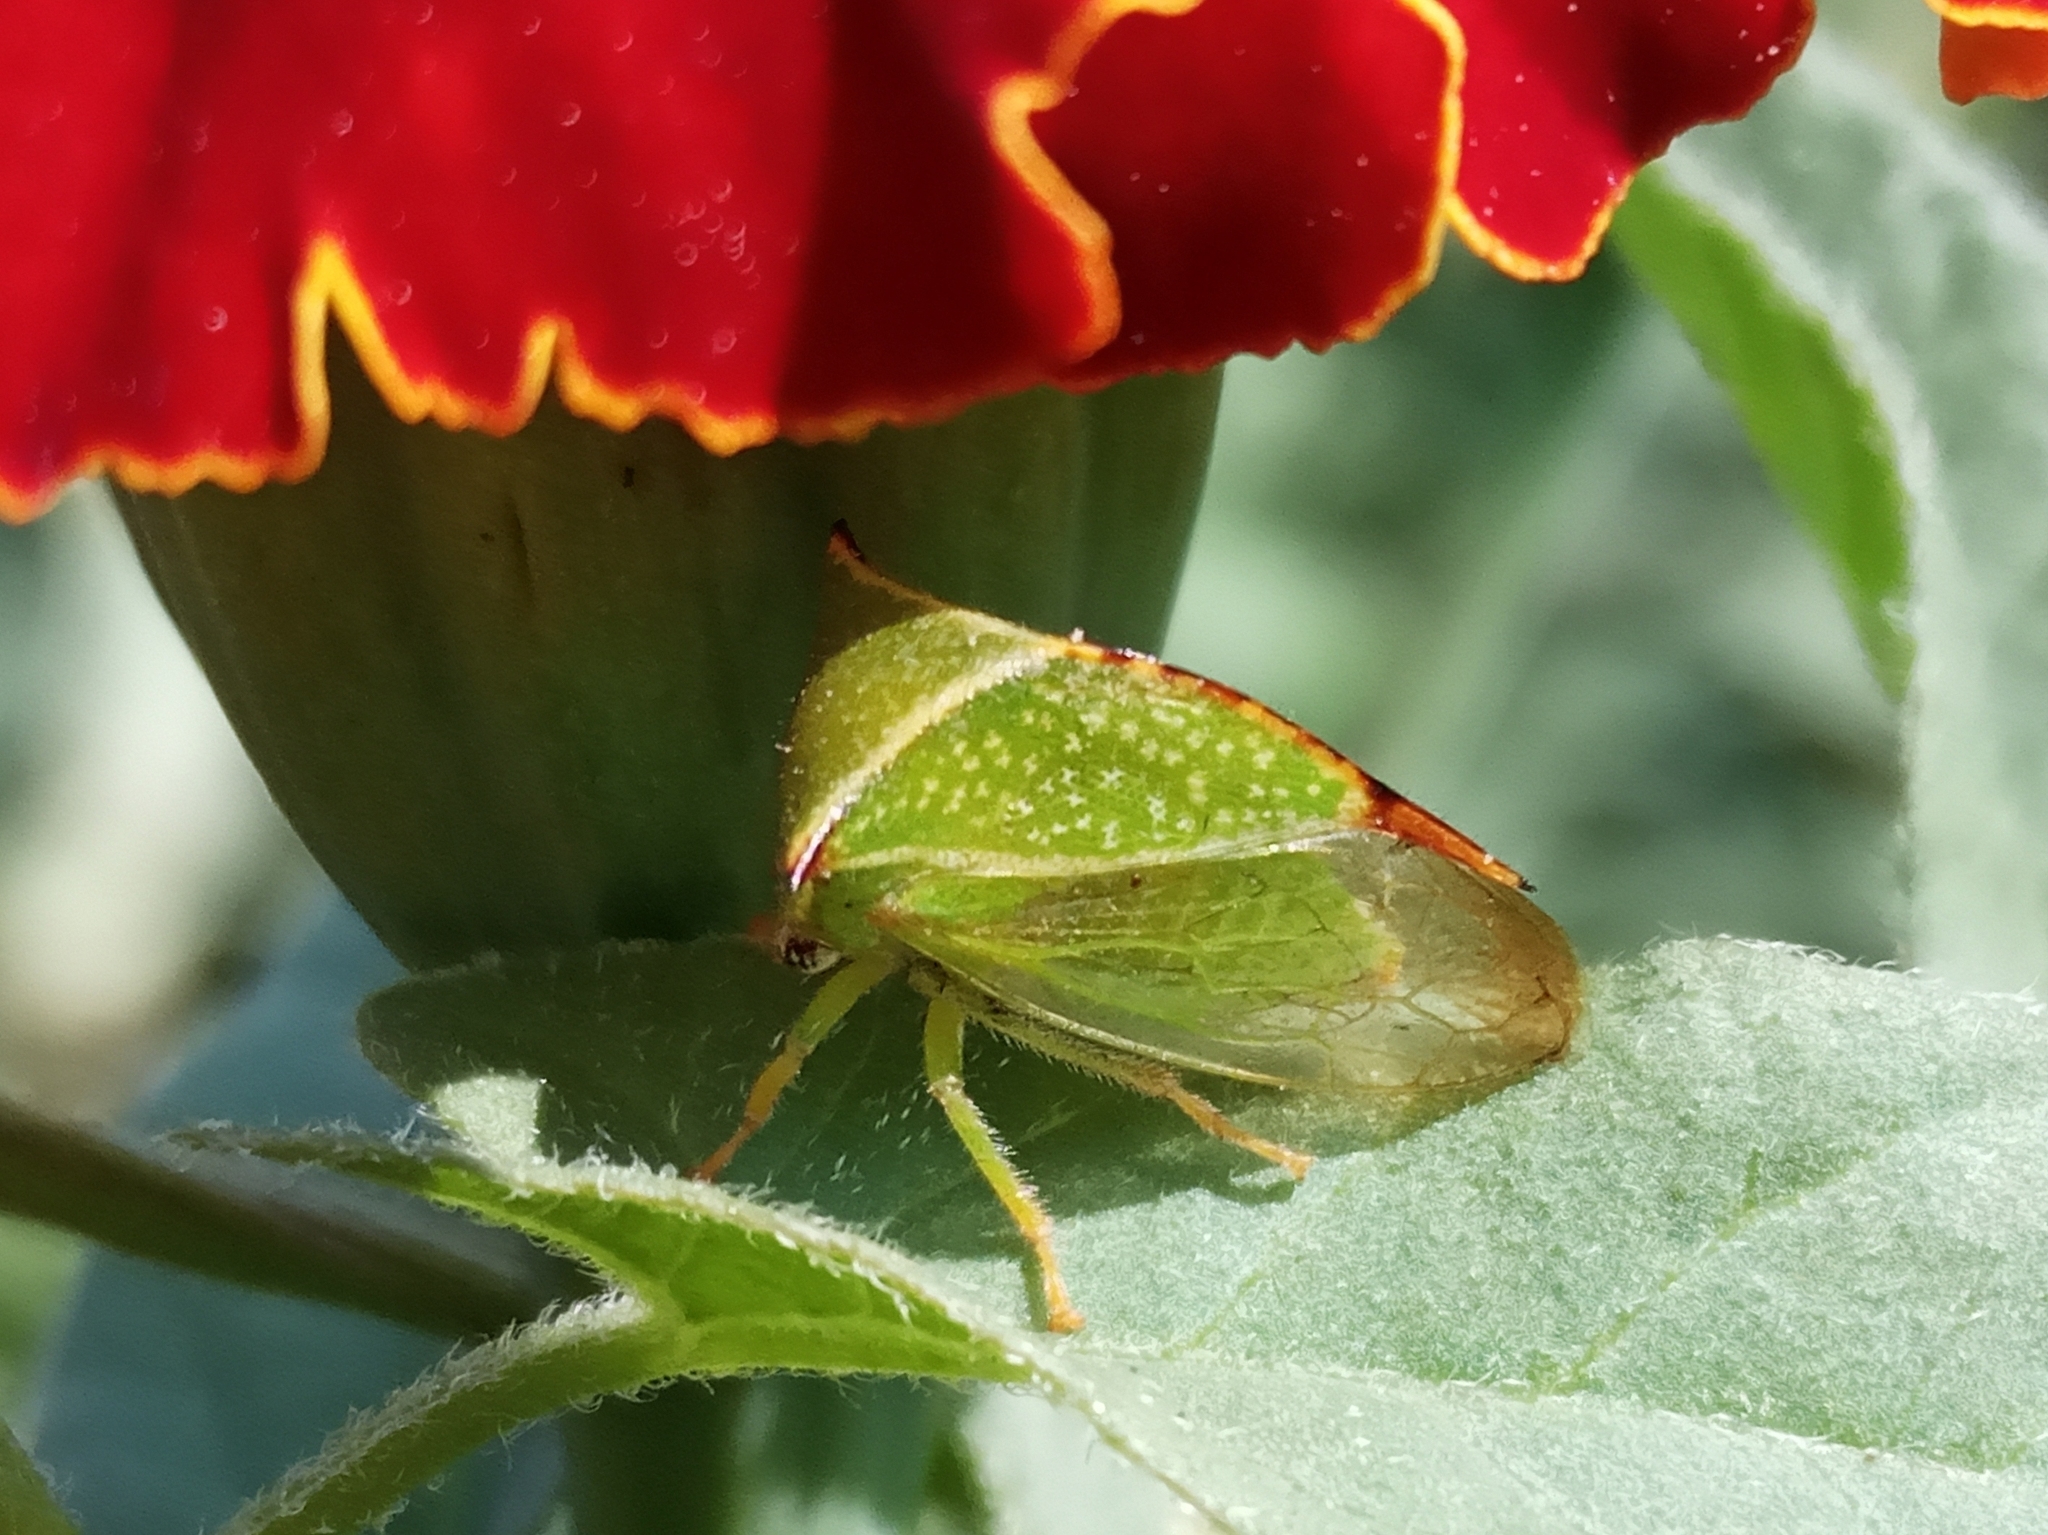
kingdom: Animalia
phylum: Arthropoda
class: Insecta
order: Hemiptera
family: Membracidae
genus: Stictocephala
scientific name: Stictocephala bisonia
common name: American buffalo treehopper
